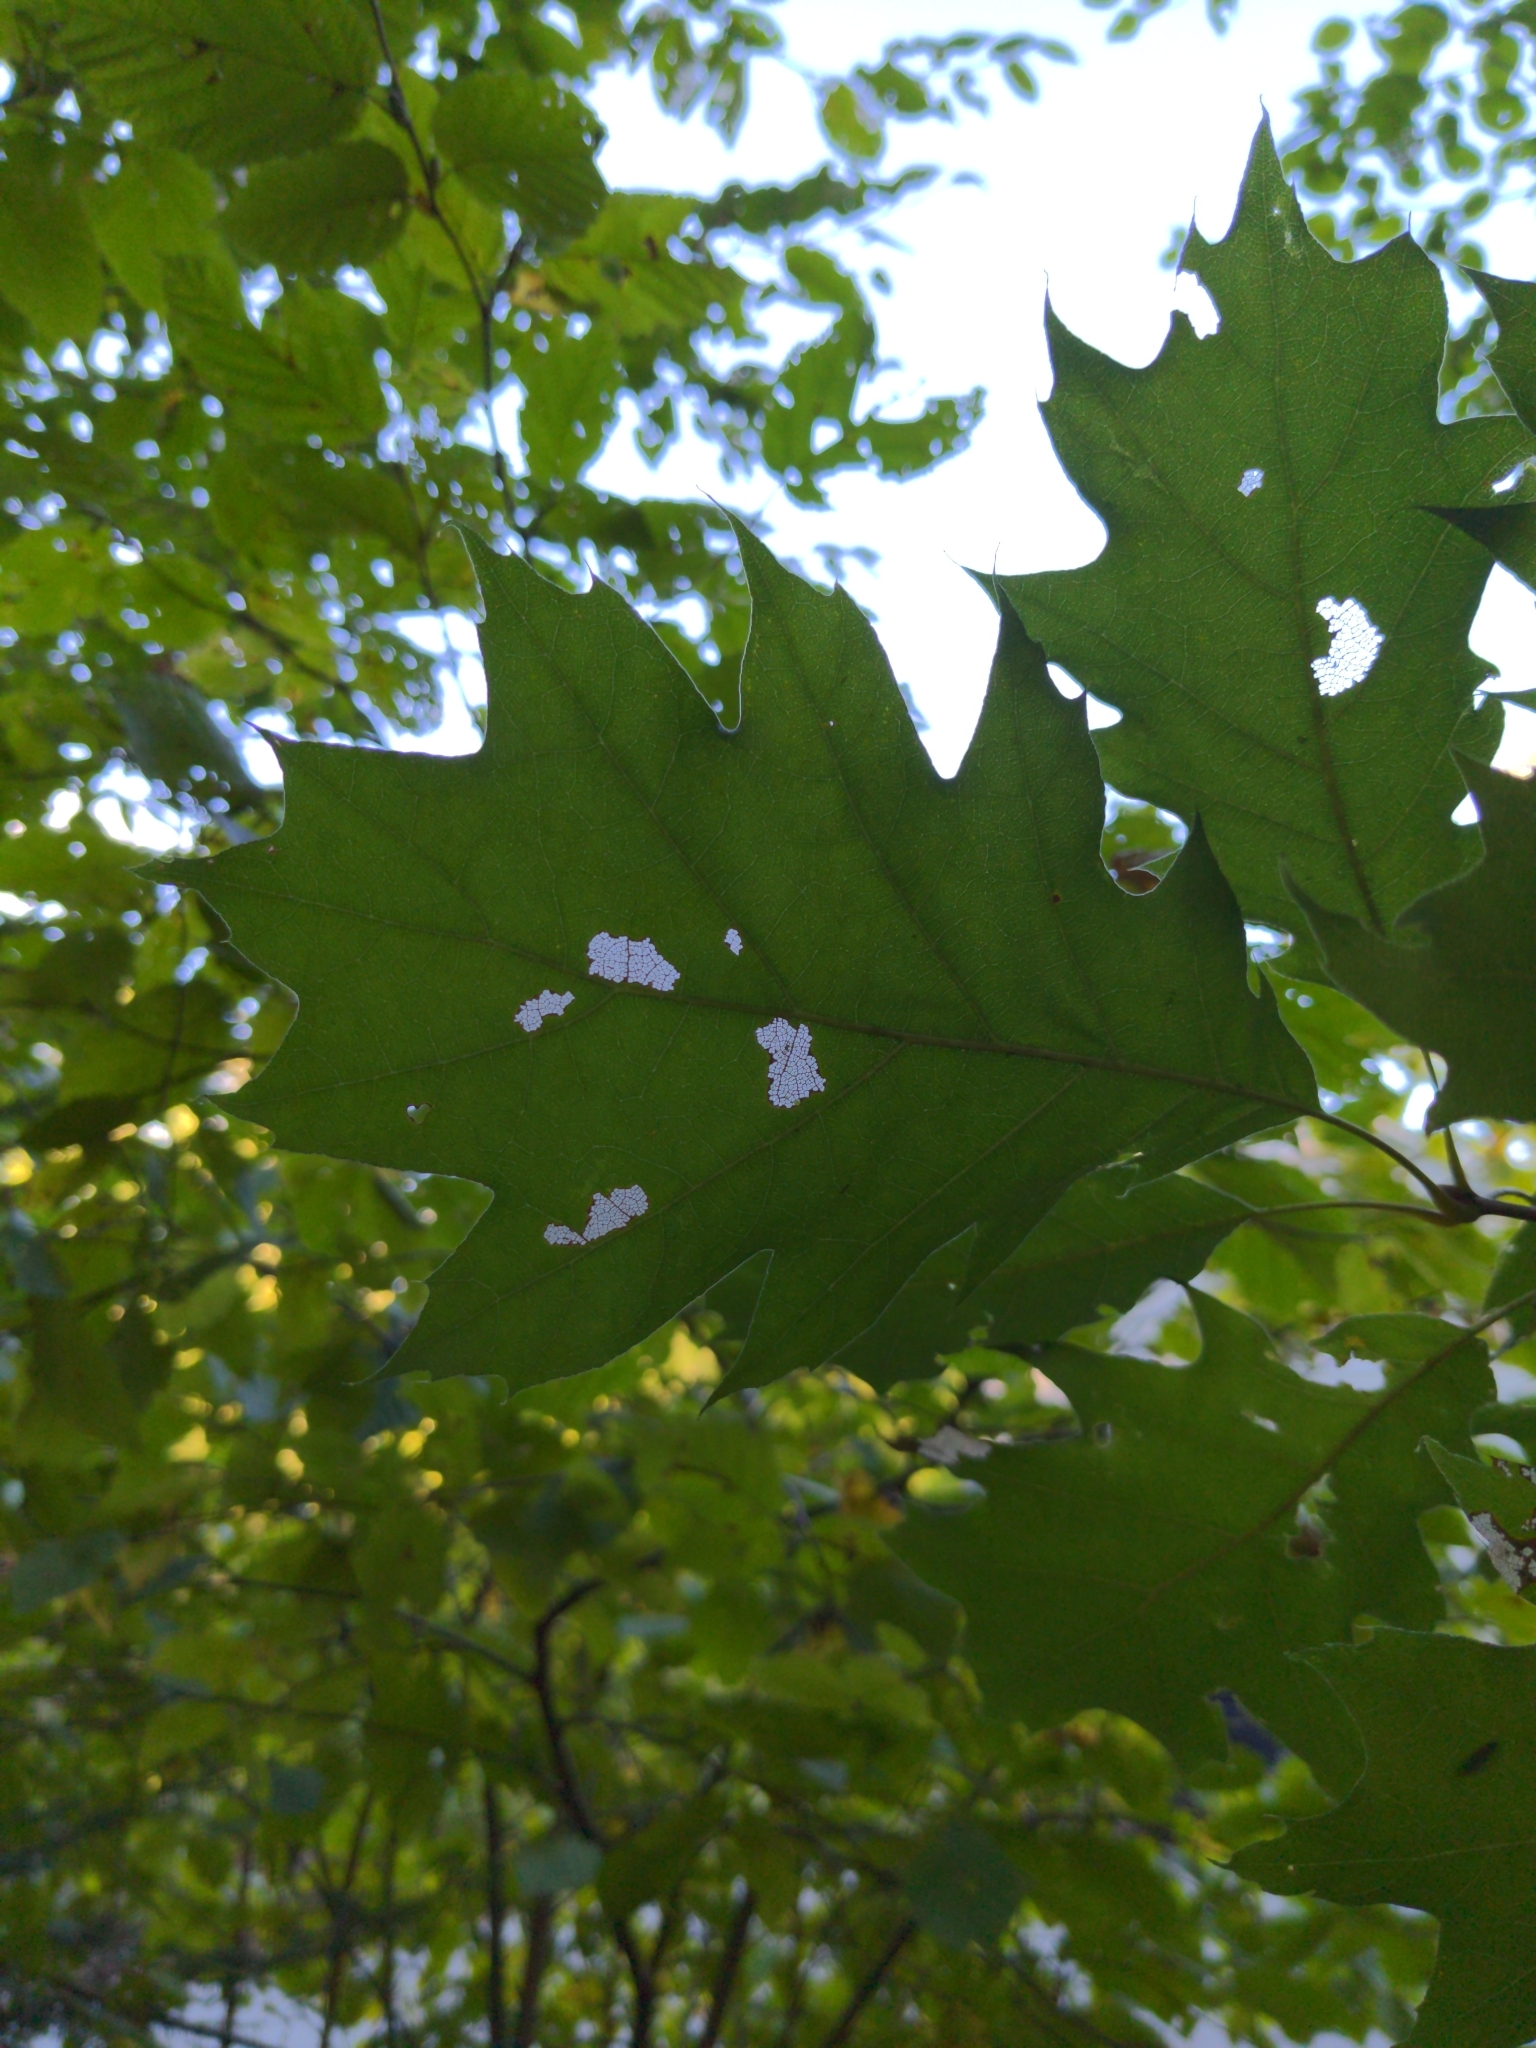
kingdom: Plantae
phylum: Tracheophyta
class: Magnoliopsida
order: Fagales
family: Fagaceae
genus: Quercus
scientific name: Quercus rubra
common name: Red oak
